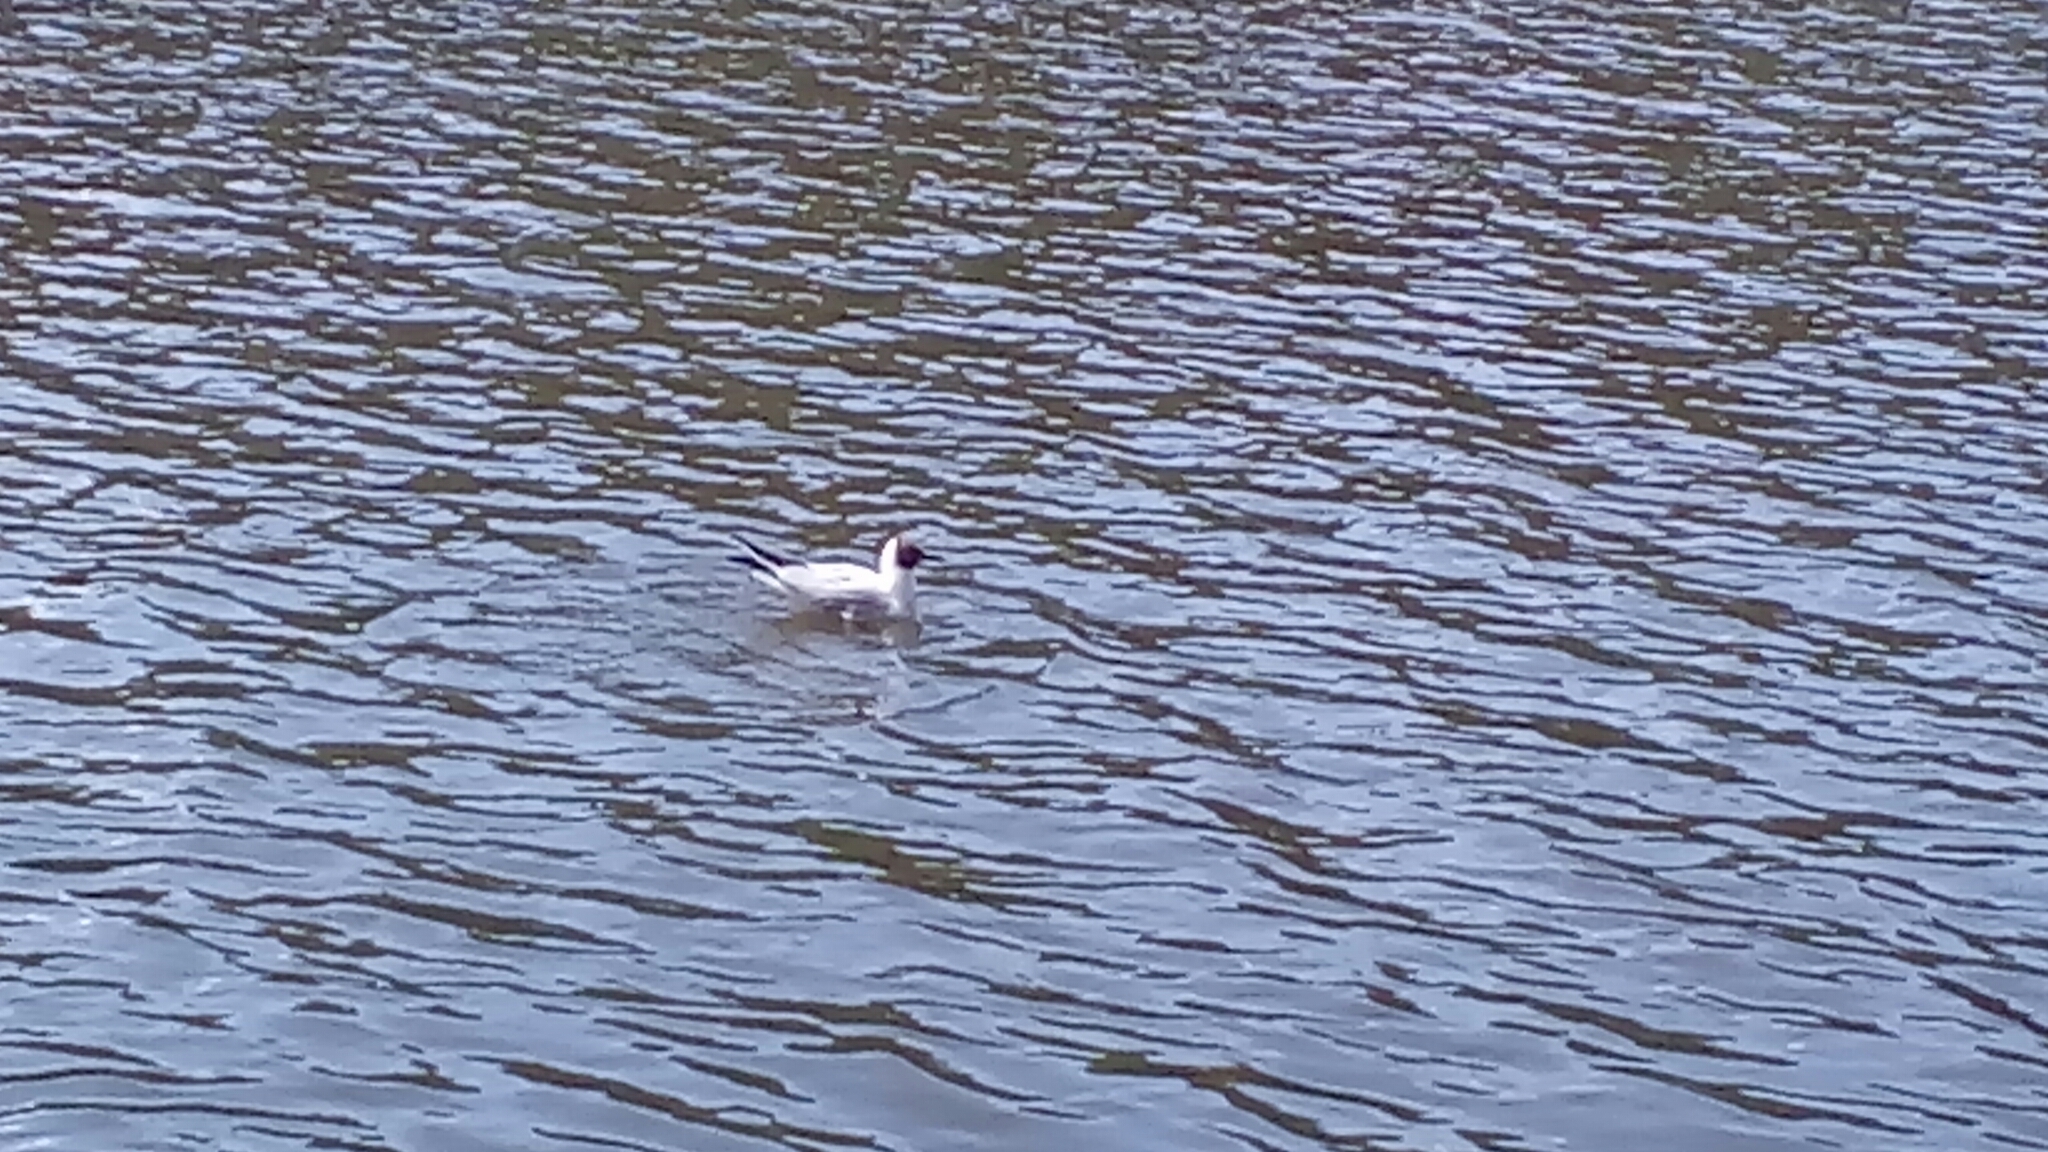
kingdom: Animalia
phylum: Chordata
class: Aves
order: Charadriiformes
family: Laridae
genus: Chroicocephalus
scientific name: Chroicocephalus ridibundus
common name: Black-headed gull
